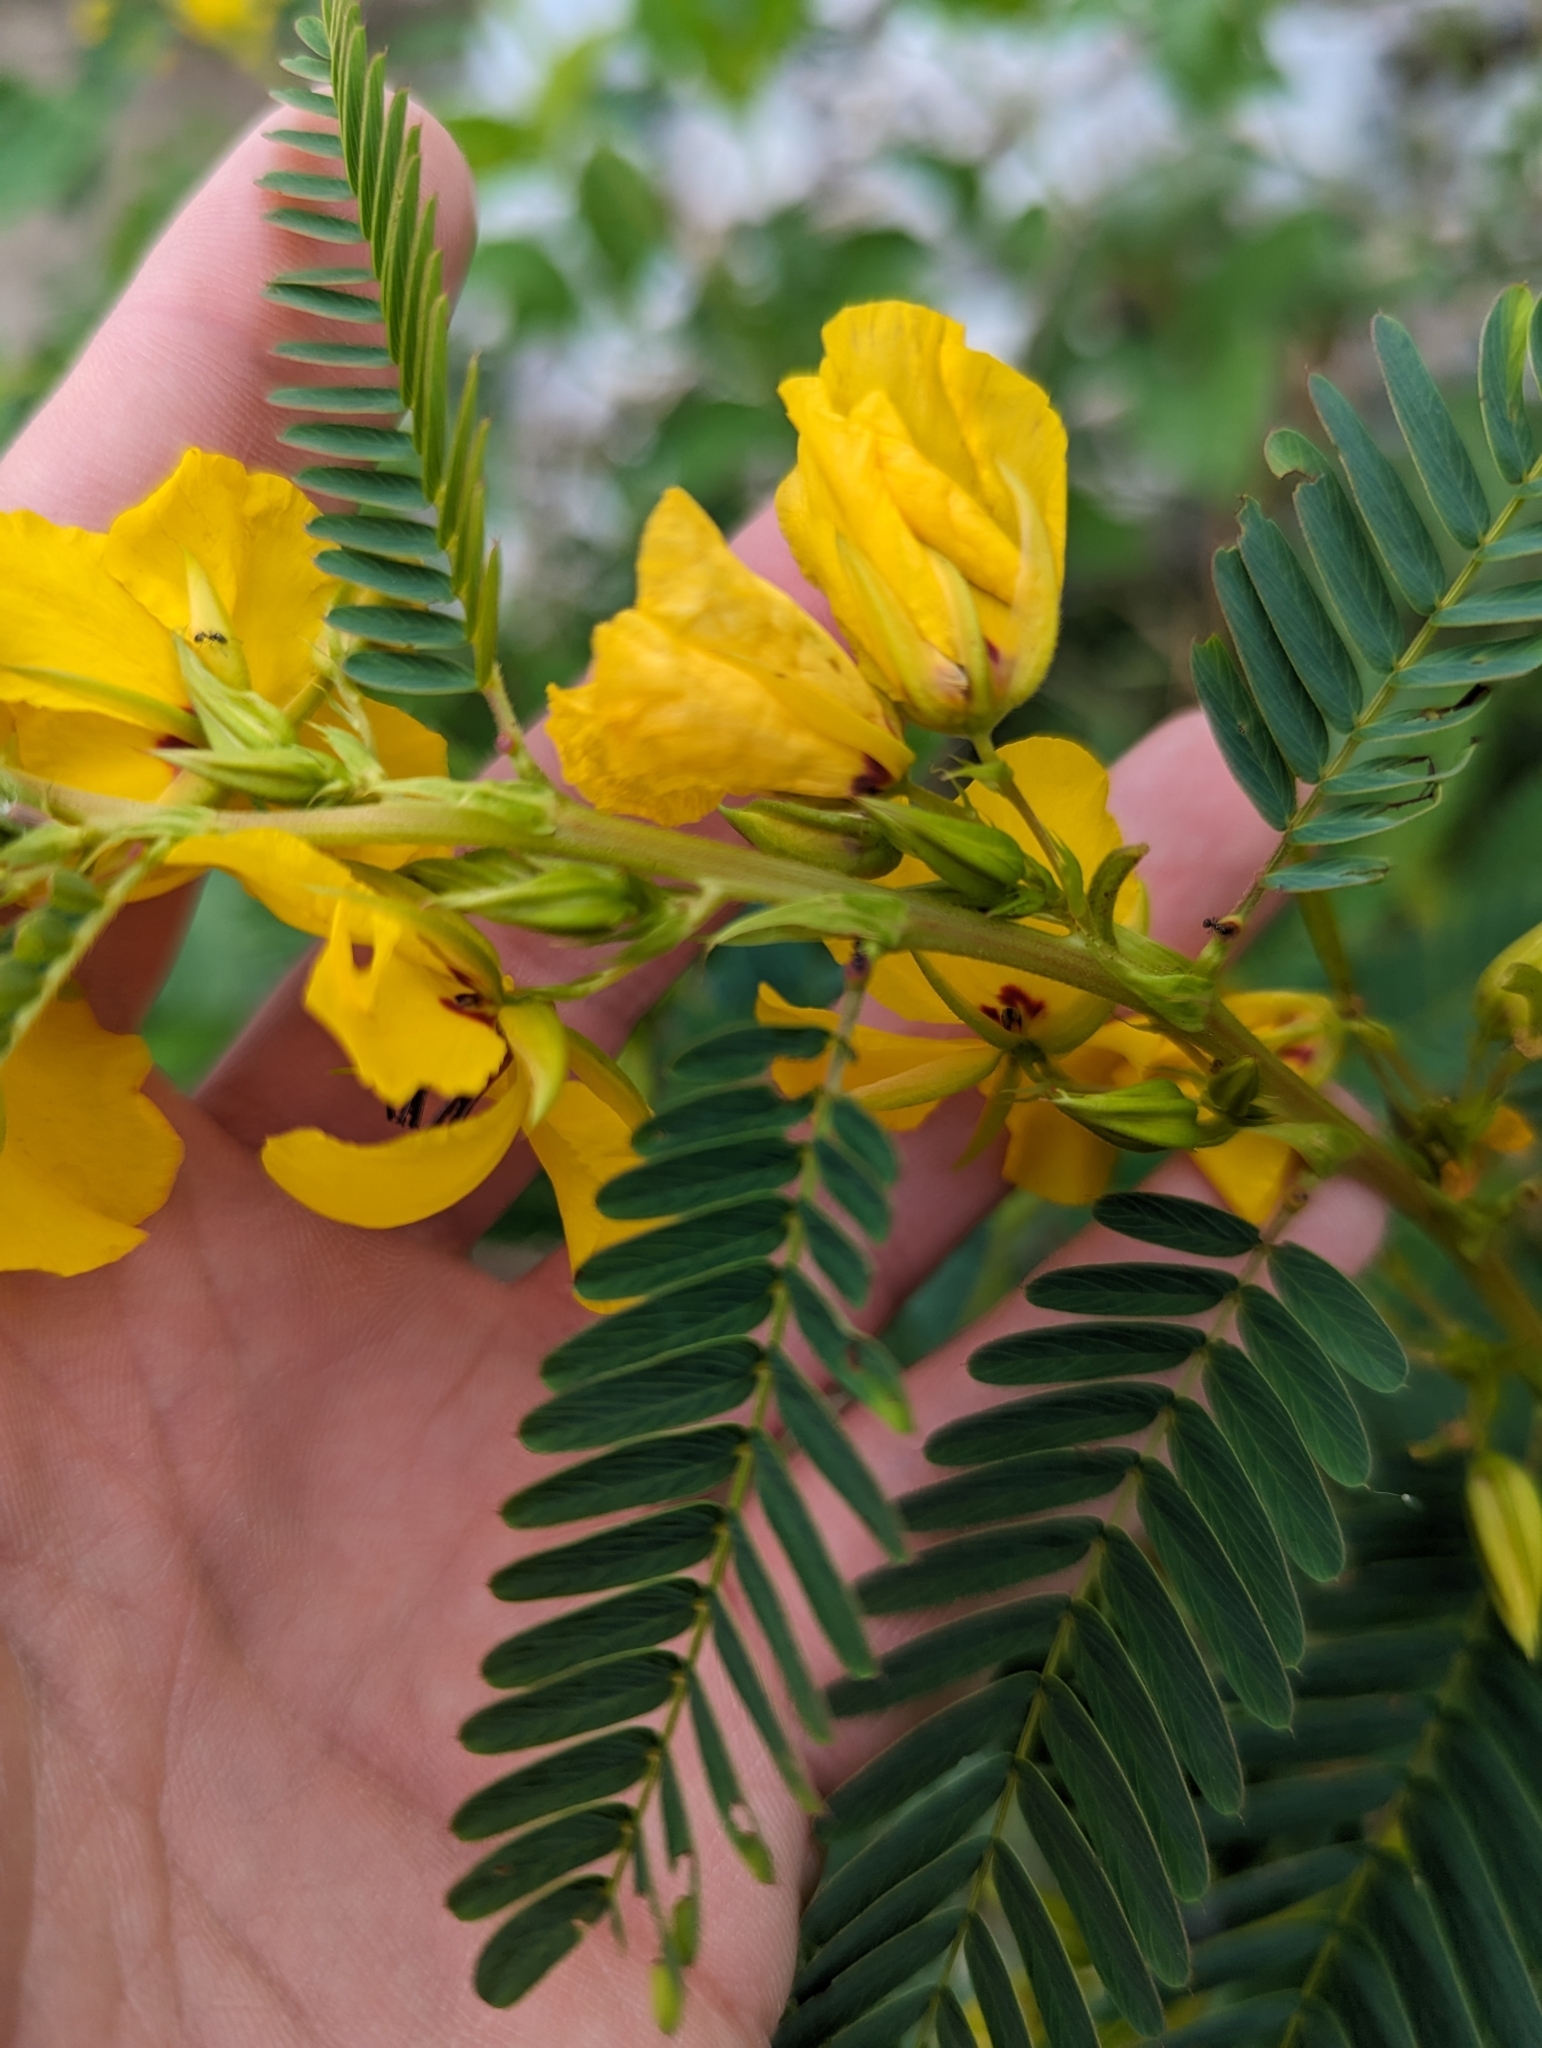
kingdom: Plantae
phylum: Tracheophyta
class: Magnoliopsida
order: Fabales
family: Fabaceae
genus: Chamaecrista
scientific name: Chamaecrista fasciculata
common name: Golden cassia
